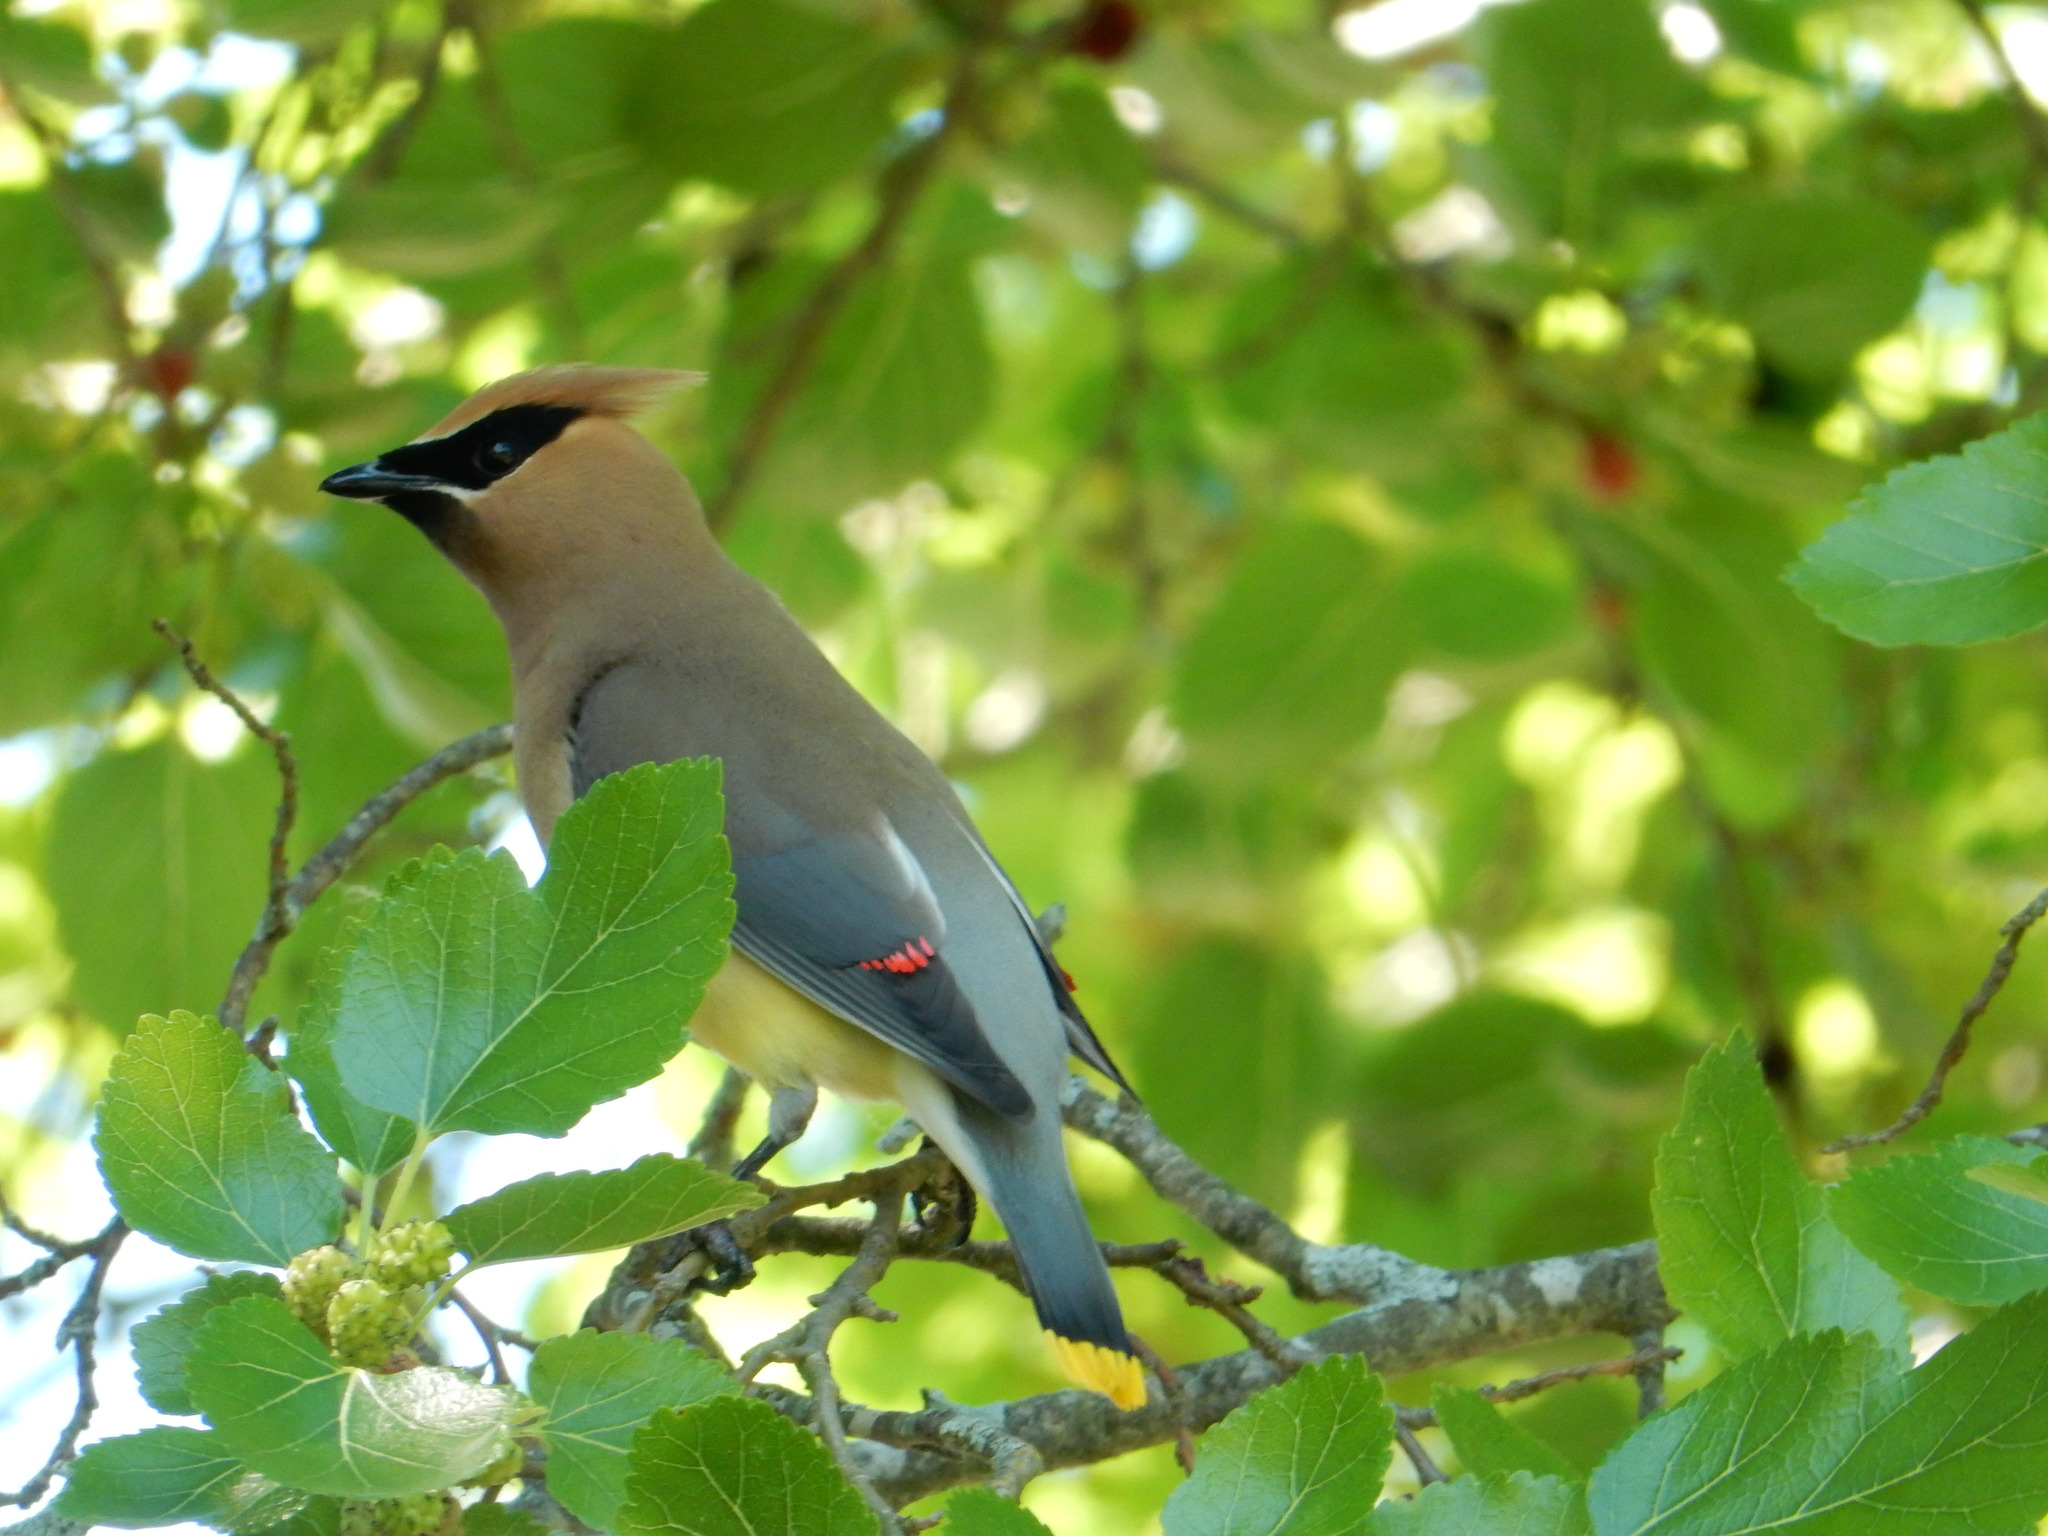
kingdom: Animalia
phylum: Chordata
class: Aves
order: Passeriformes
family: Bombycillidae
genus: Bombycilla
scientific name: Bombycilla cedrorum
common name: Cedar waxwing
